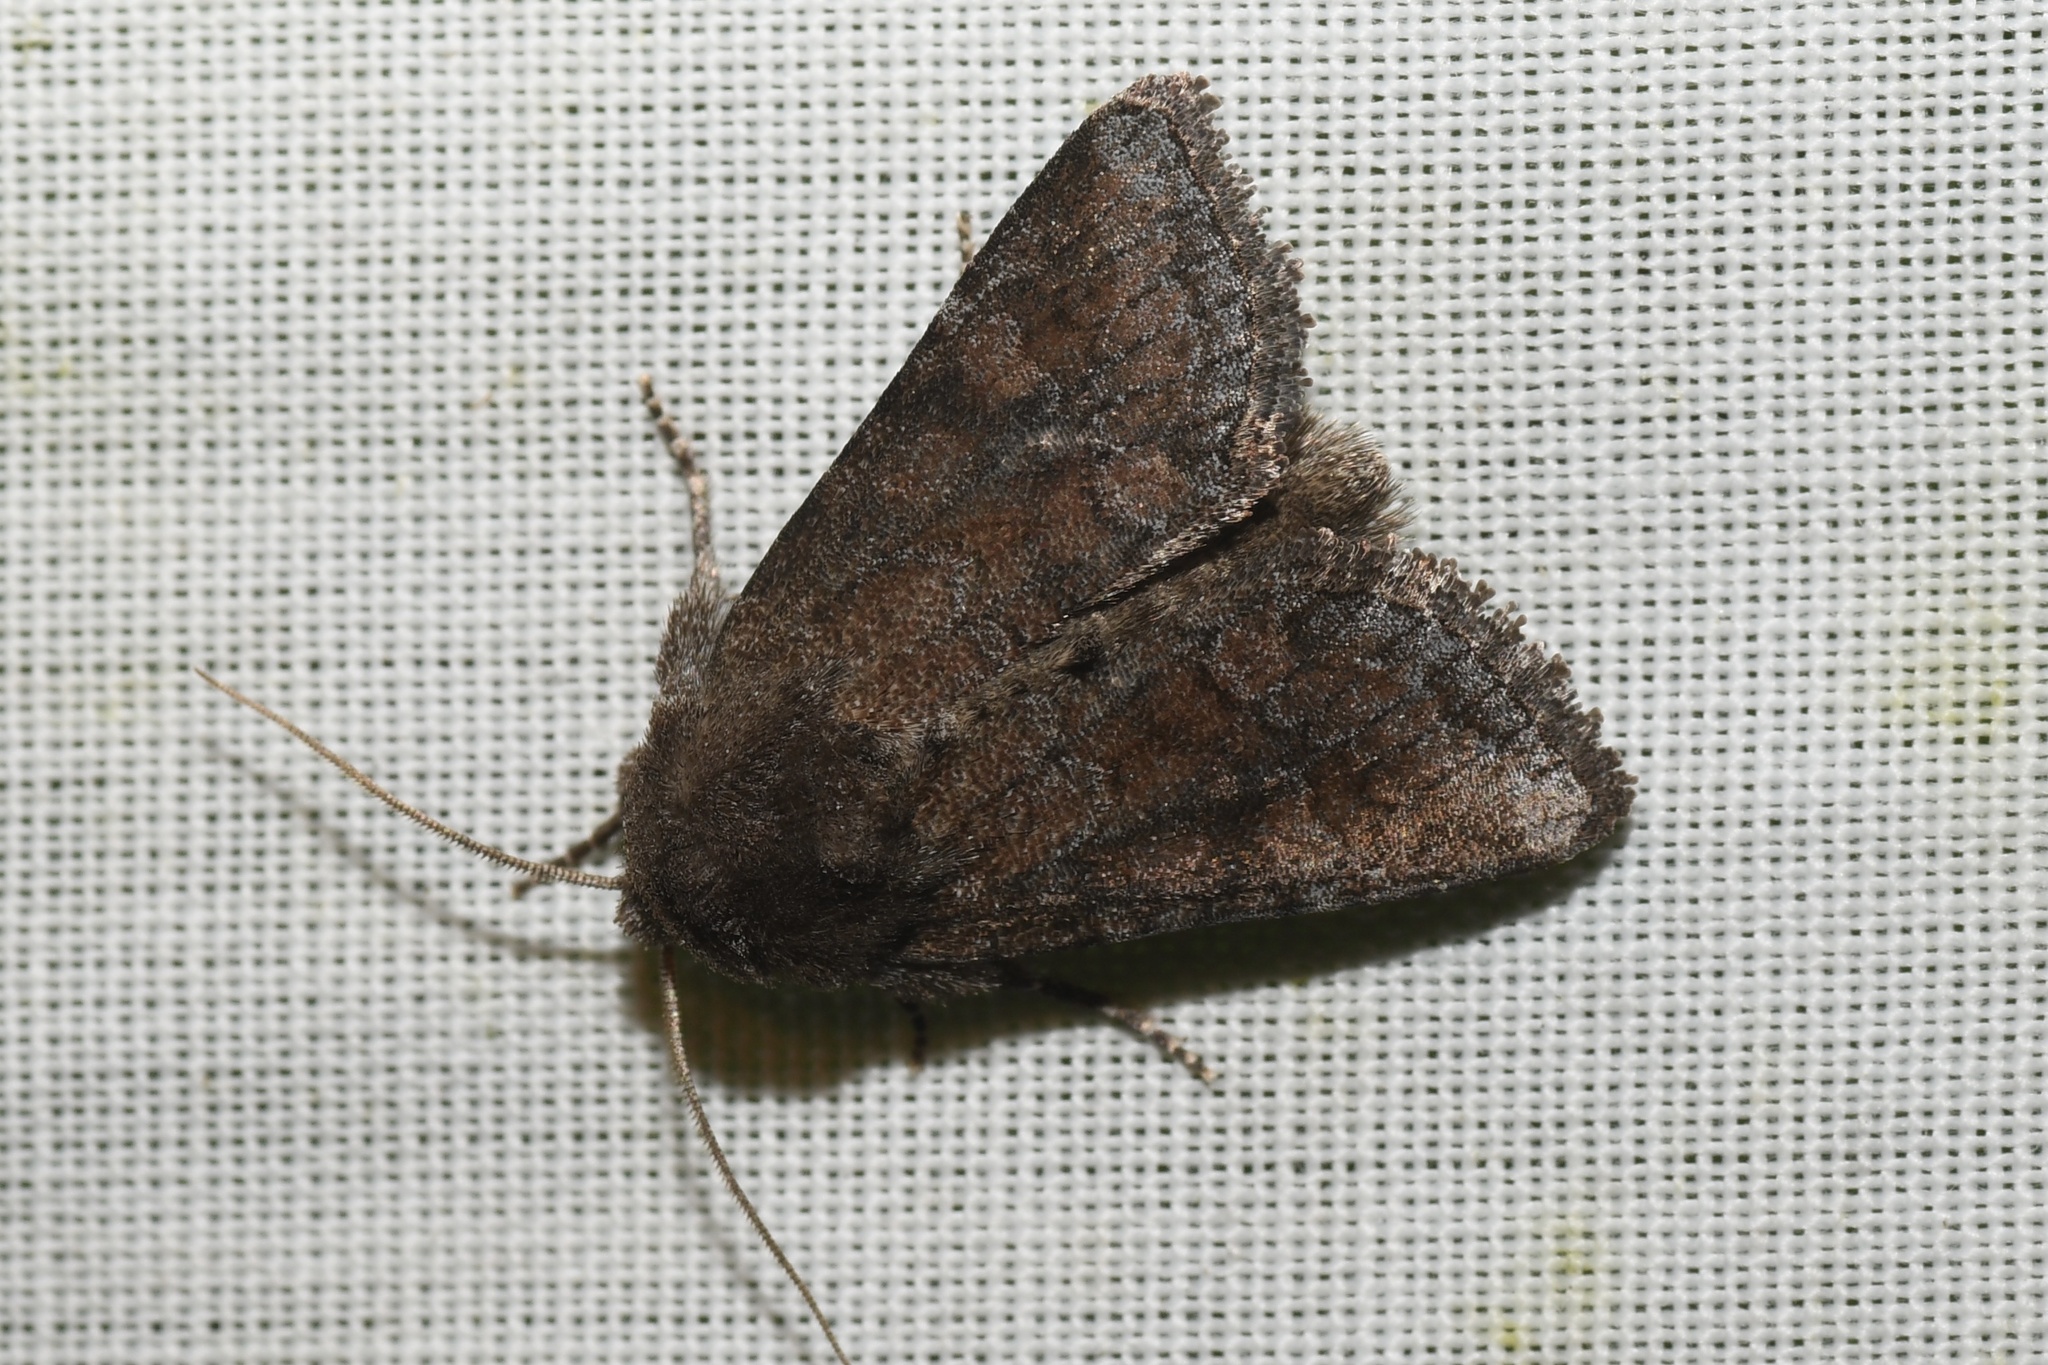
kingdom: Animalia
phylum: Arthropoda
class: Insecta
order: Lepidoptera
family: Noctuidae
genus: Lacinipolia
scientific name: Lacinipolia meditata
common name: Thinker moth
